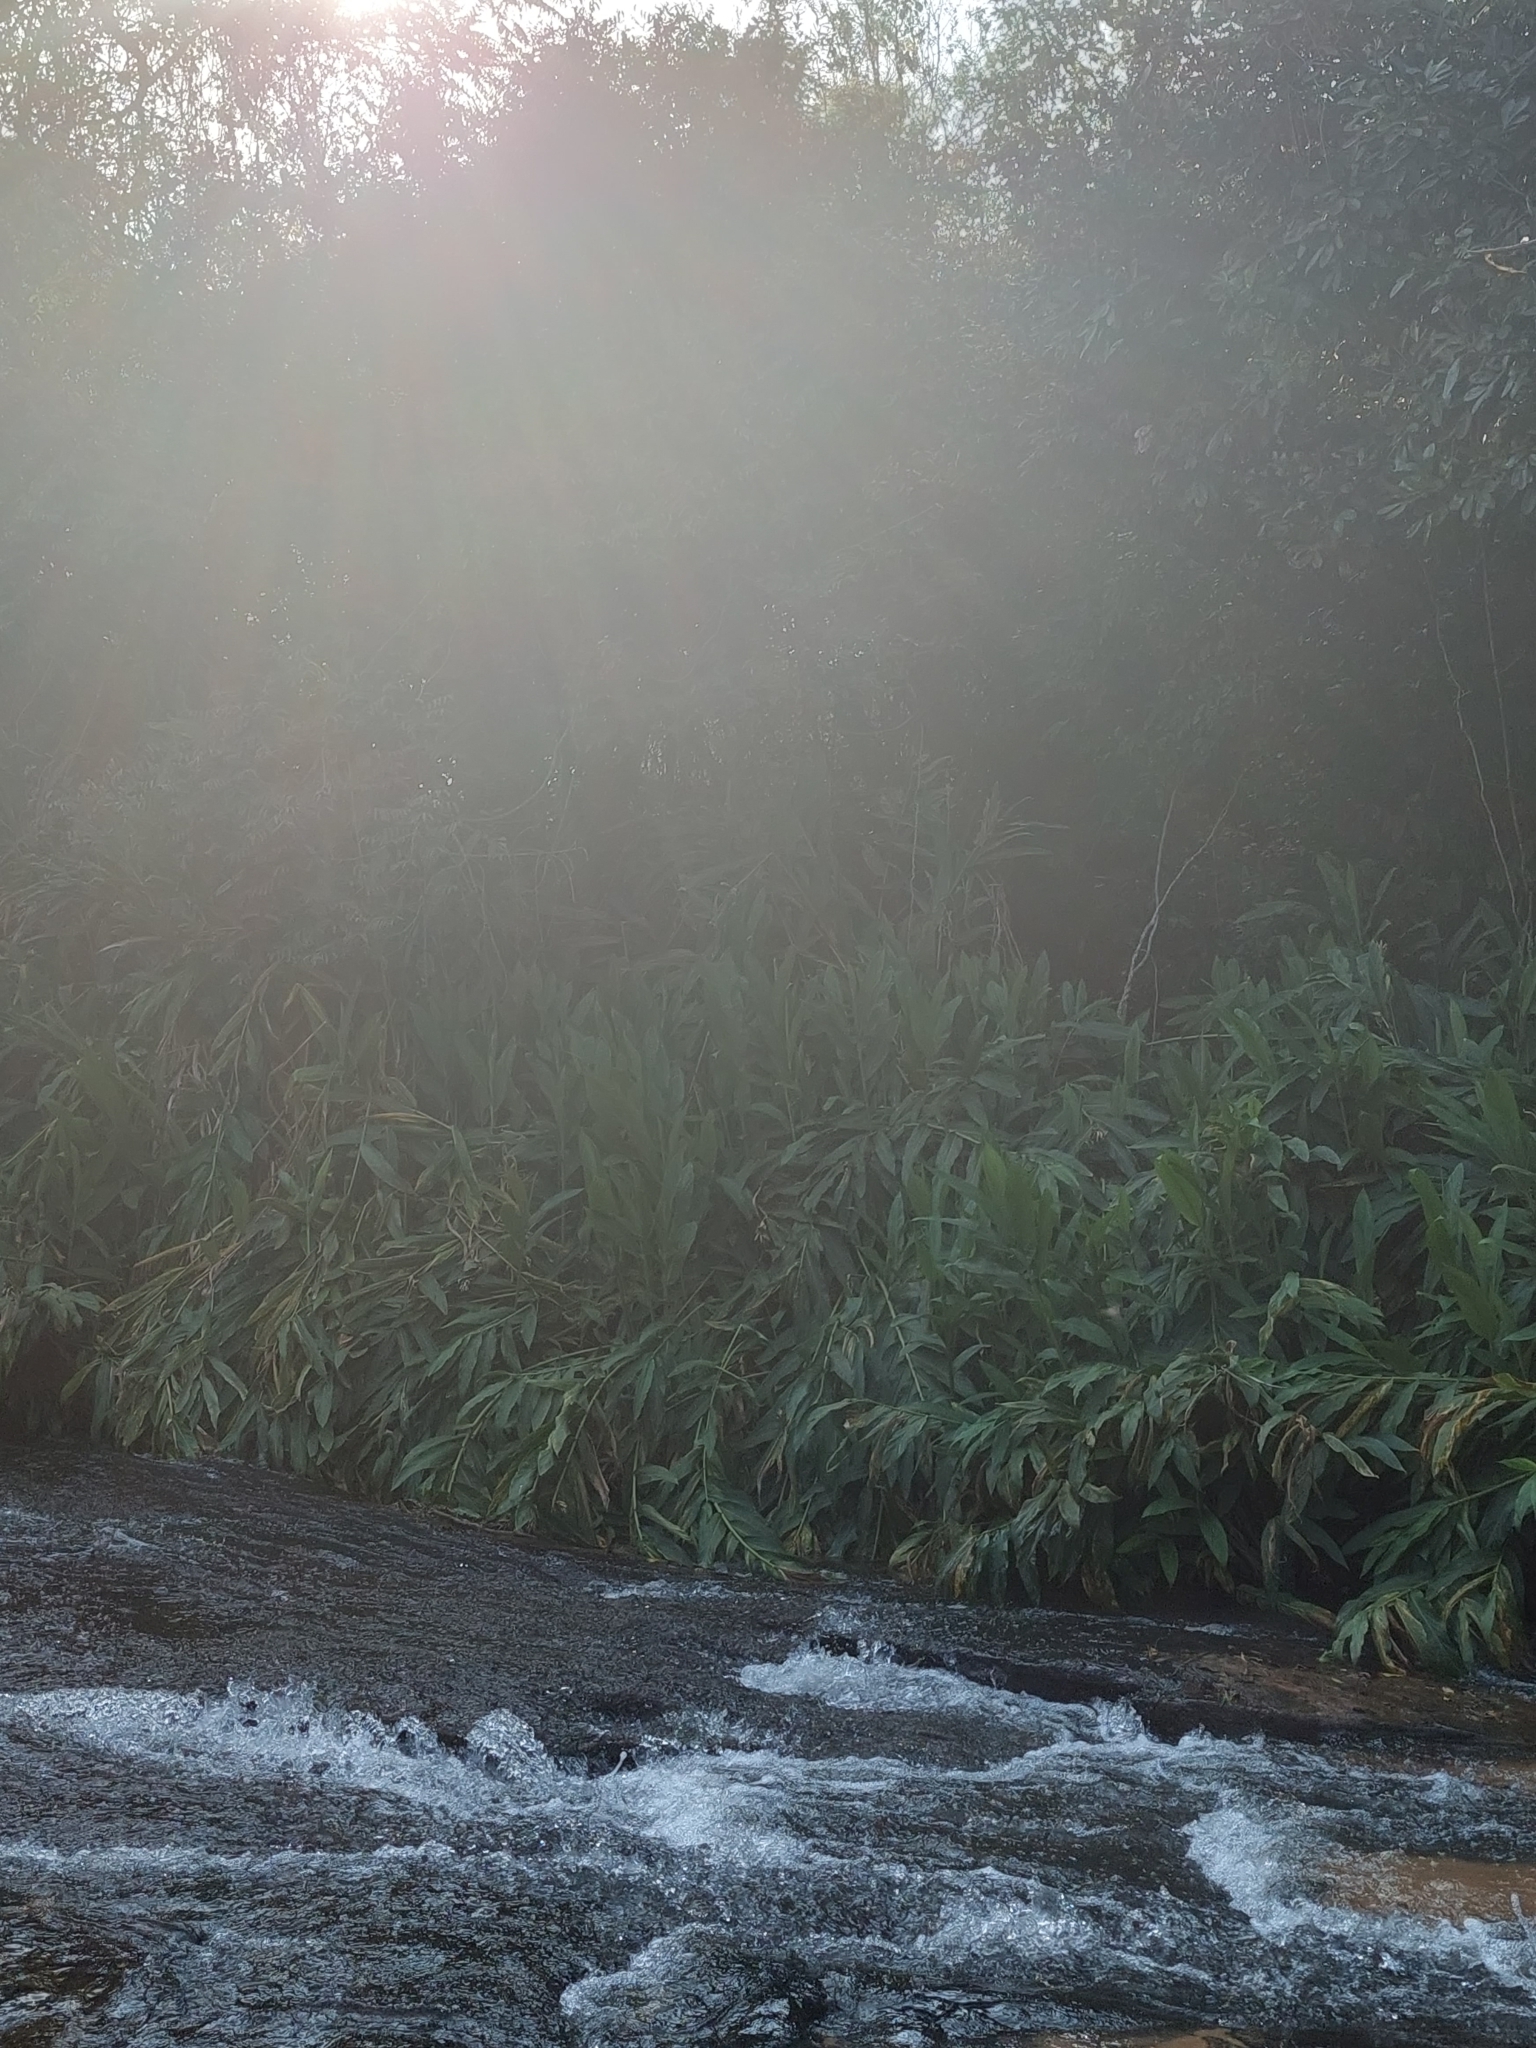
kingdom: Plantae
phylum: Tracheophyta
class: Liliopsida
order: Zingiberales
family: Zingiberaceae
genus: Hedychium
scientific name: Hedychium coronarium
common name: White garland-lily
